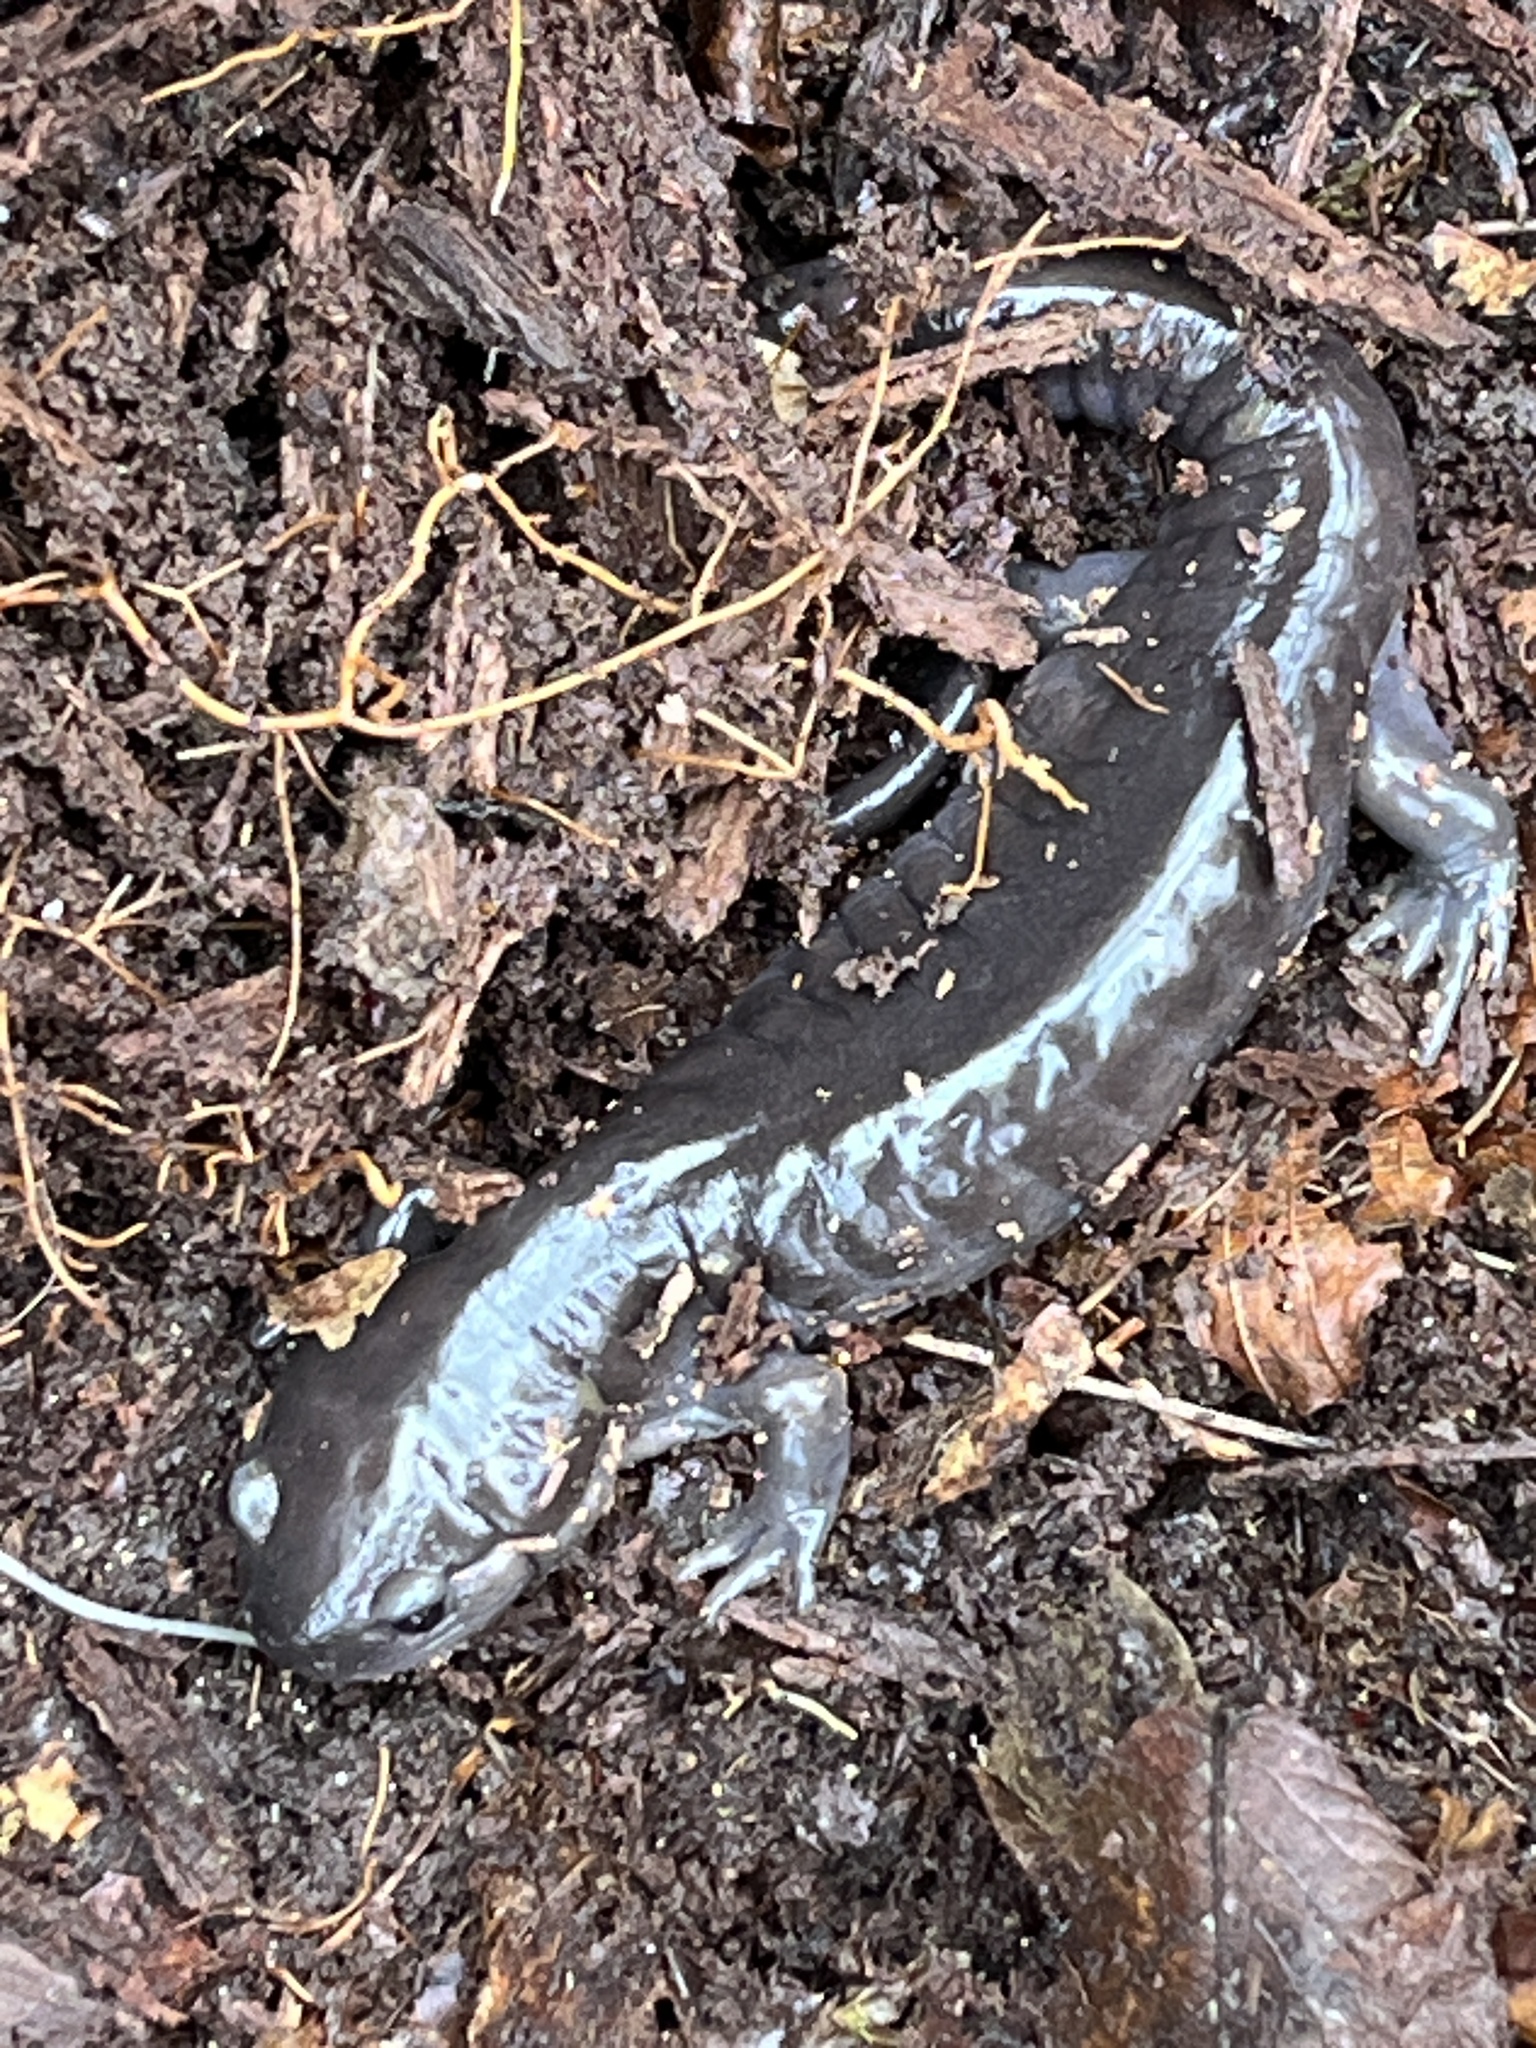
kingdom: Animalia
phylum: Chordata
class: Amphibia
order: Caudata
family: Ambystomatidae
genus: Ambystoma
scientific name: Ambystoma maculatum
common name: Spotted salamander
